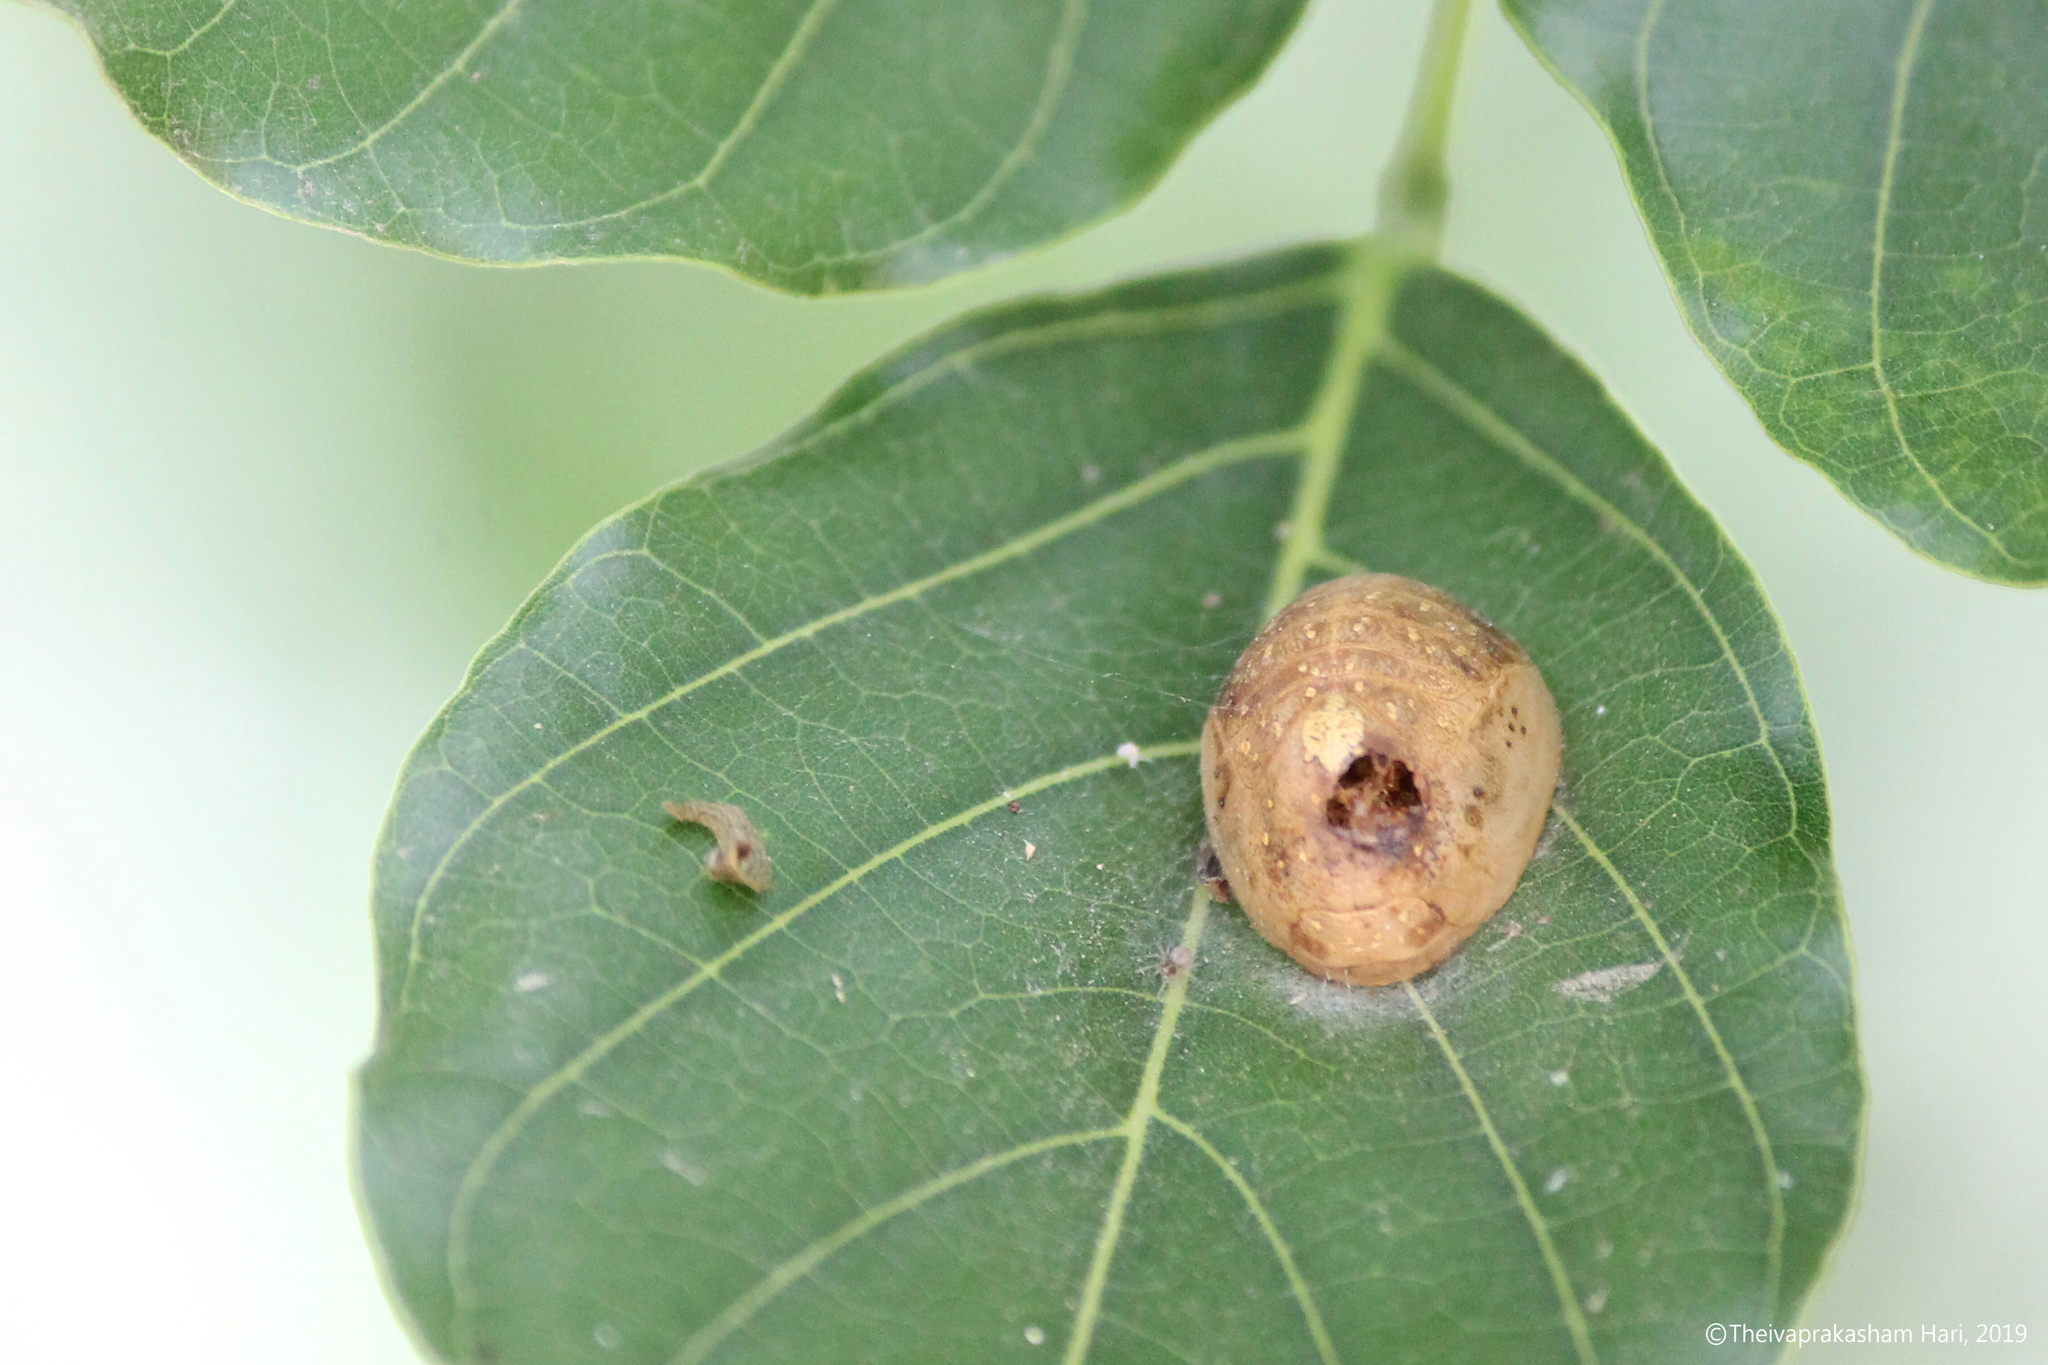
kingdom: Animalia
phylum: Arthropoda
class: Insecta
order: Lepidoptera
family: Lycaenidae
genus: Curetis
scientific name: Curetis thetis
